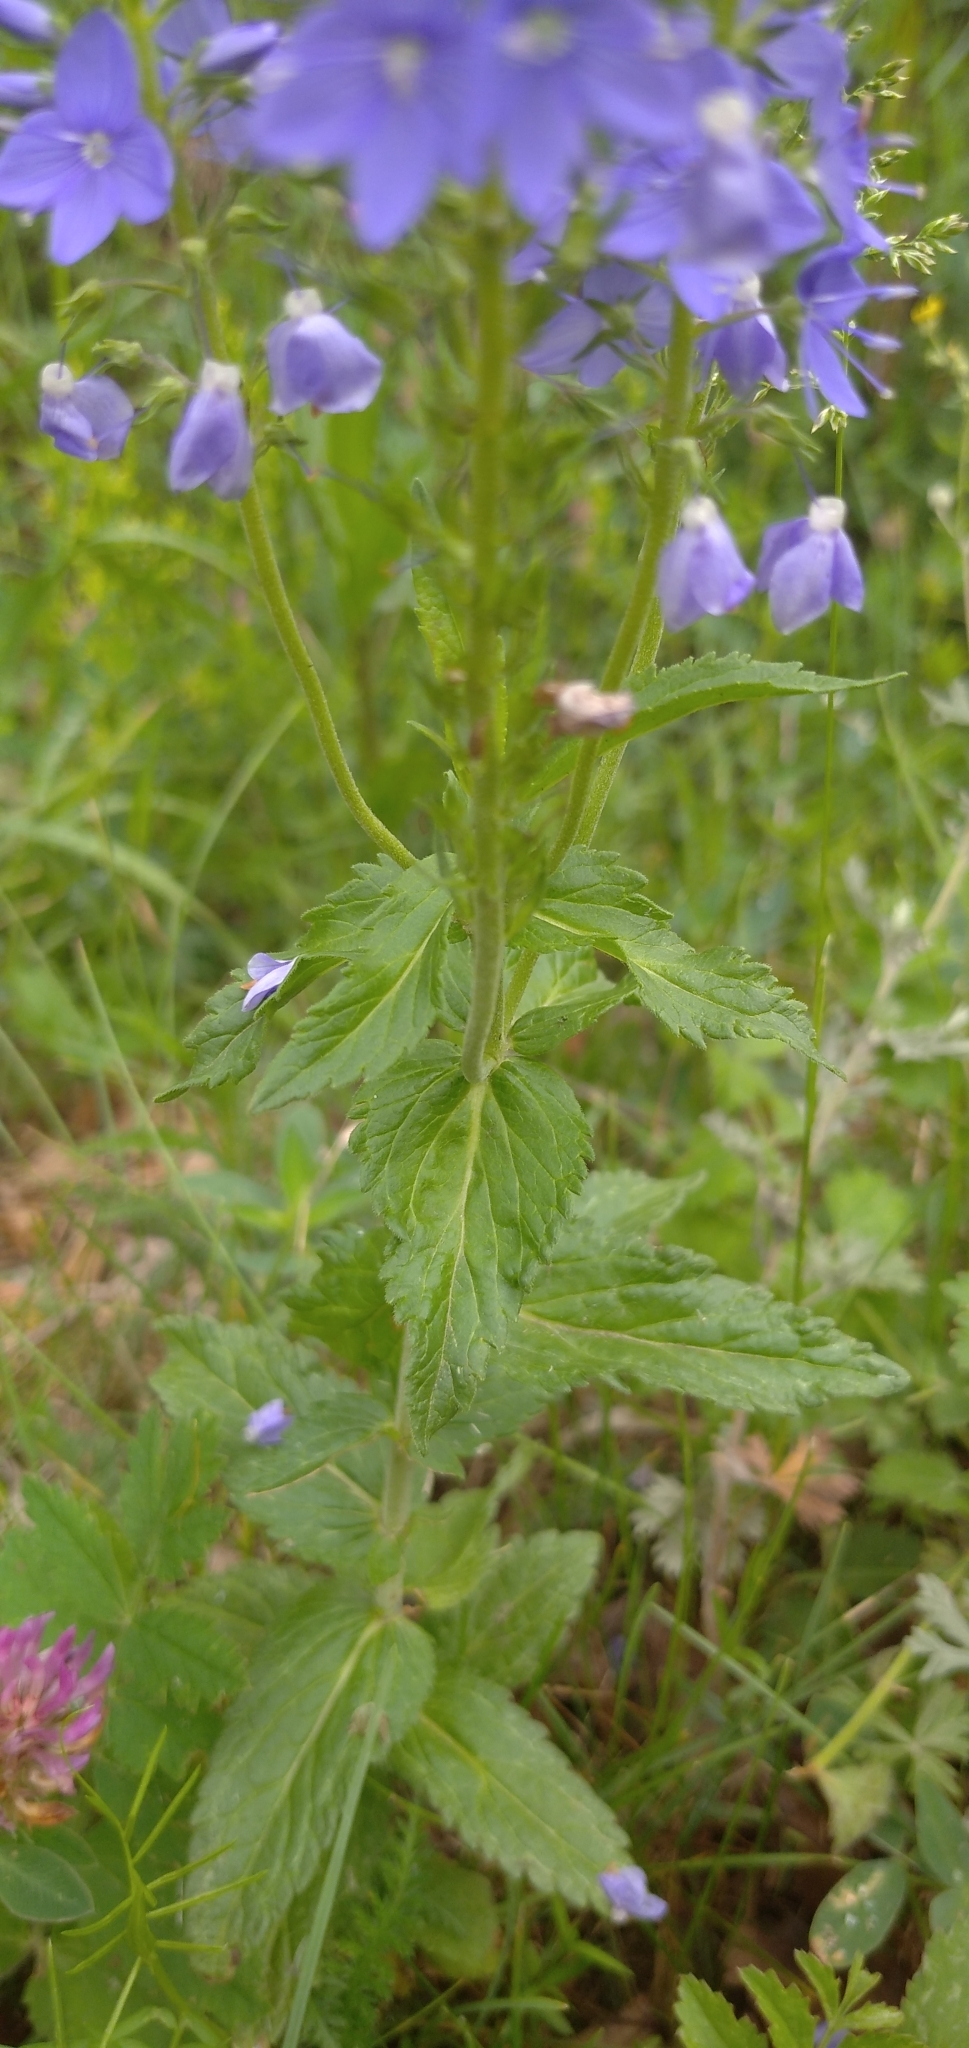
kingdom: Plantae
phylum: Tracheophyta
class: Magnoliopsida
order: Lamiales
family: Plantaginaceae
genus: Veronica
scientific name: Veronica teucrium
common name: Large speedwell
